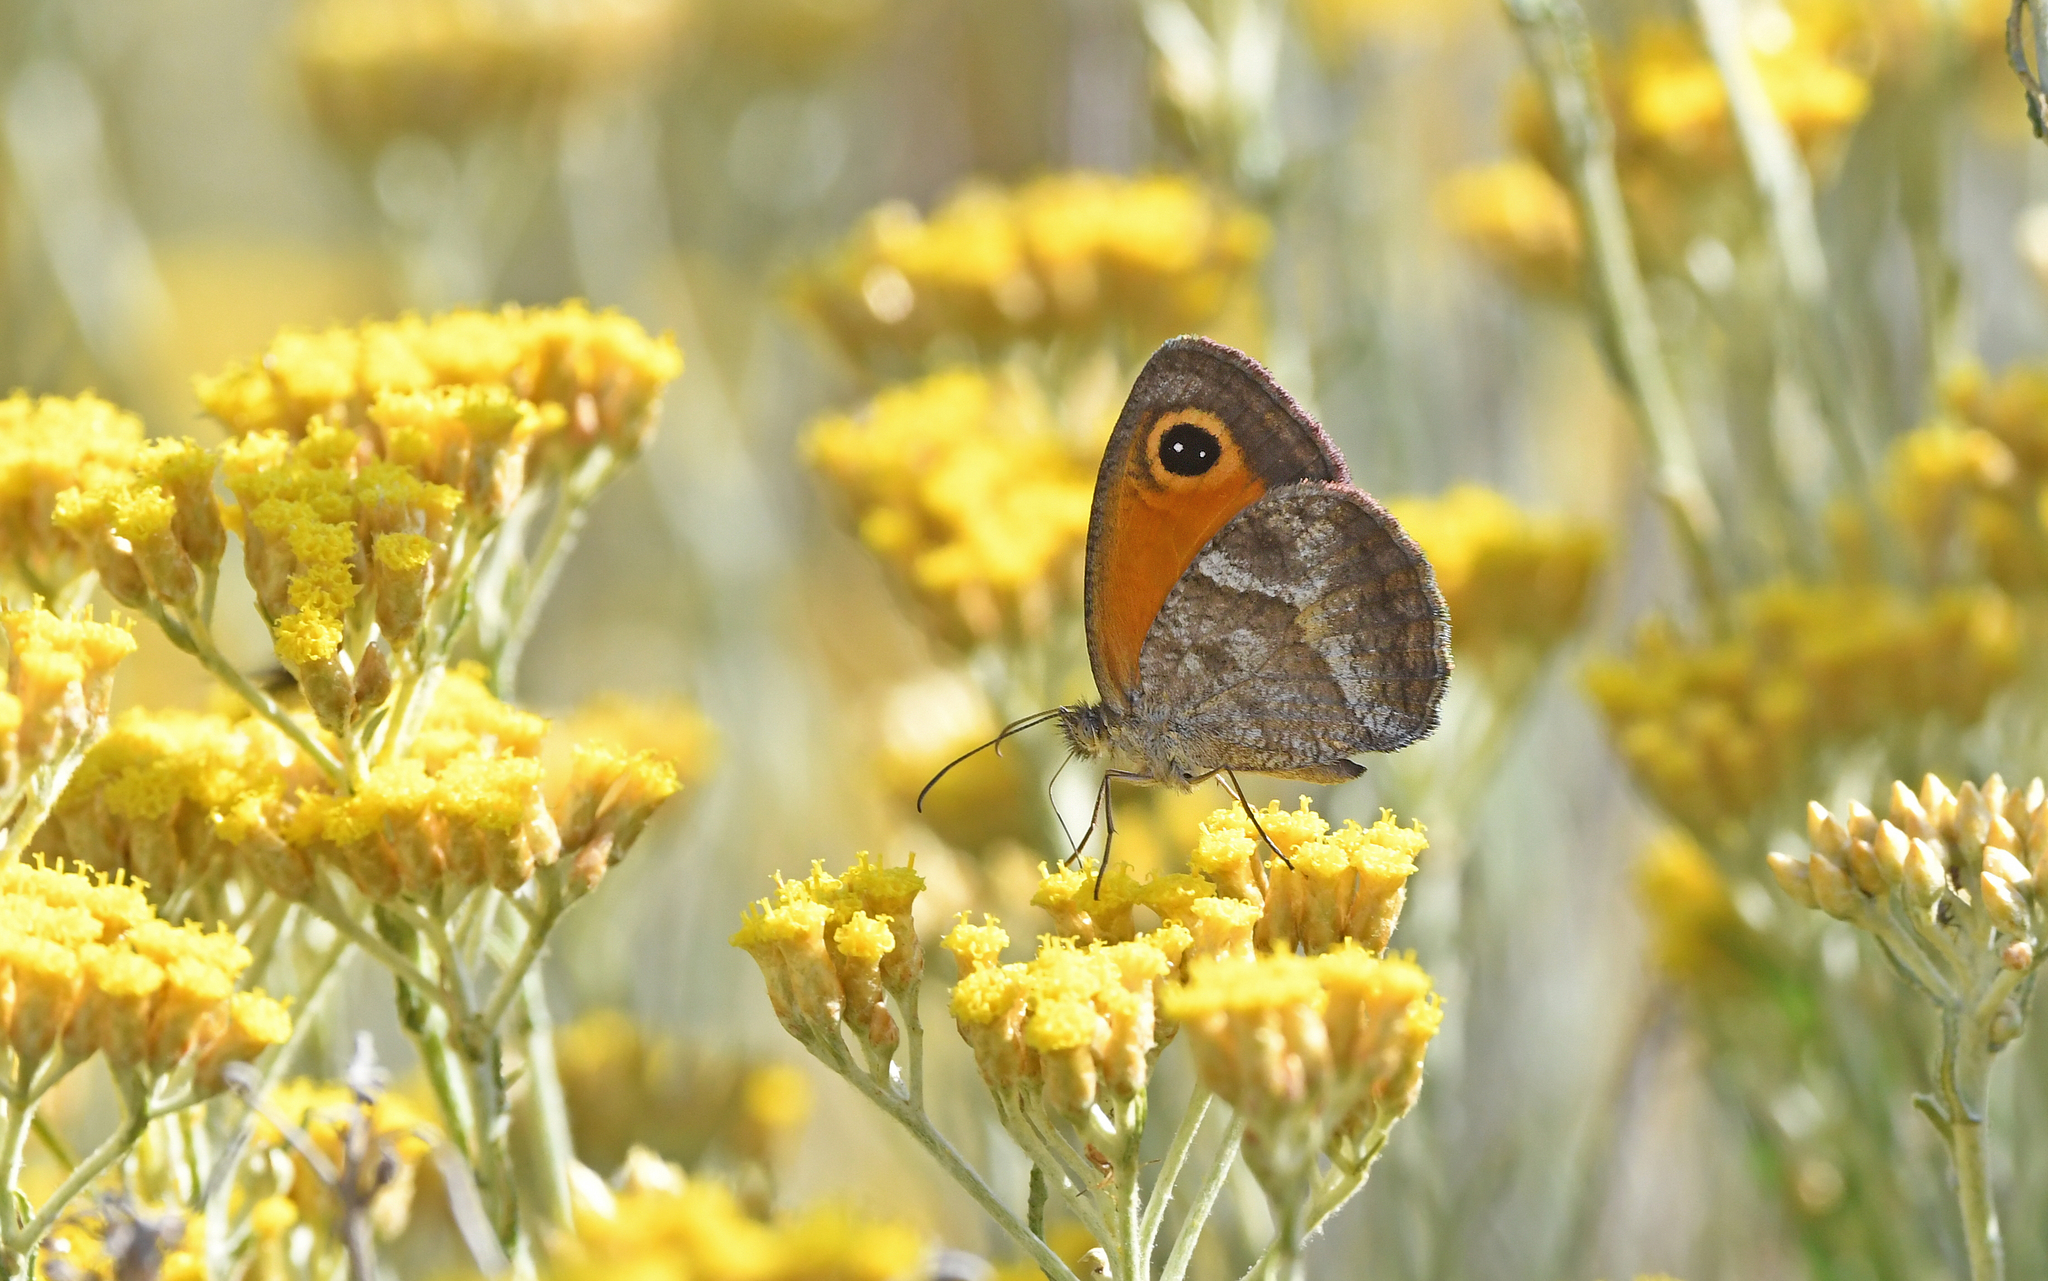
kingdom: Animalia
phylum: Arthropoda
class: Insecta
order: Lepidoptera
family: Nymphalidae
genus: Pyronia
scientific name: Pyronia cecilia
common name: Southern gatekeeper
